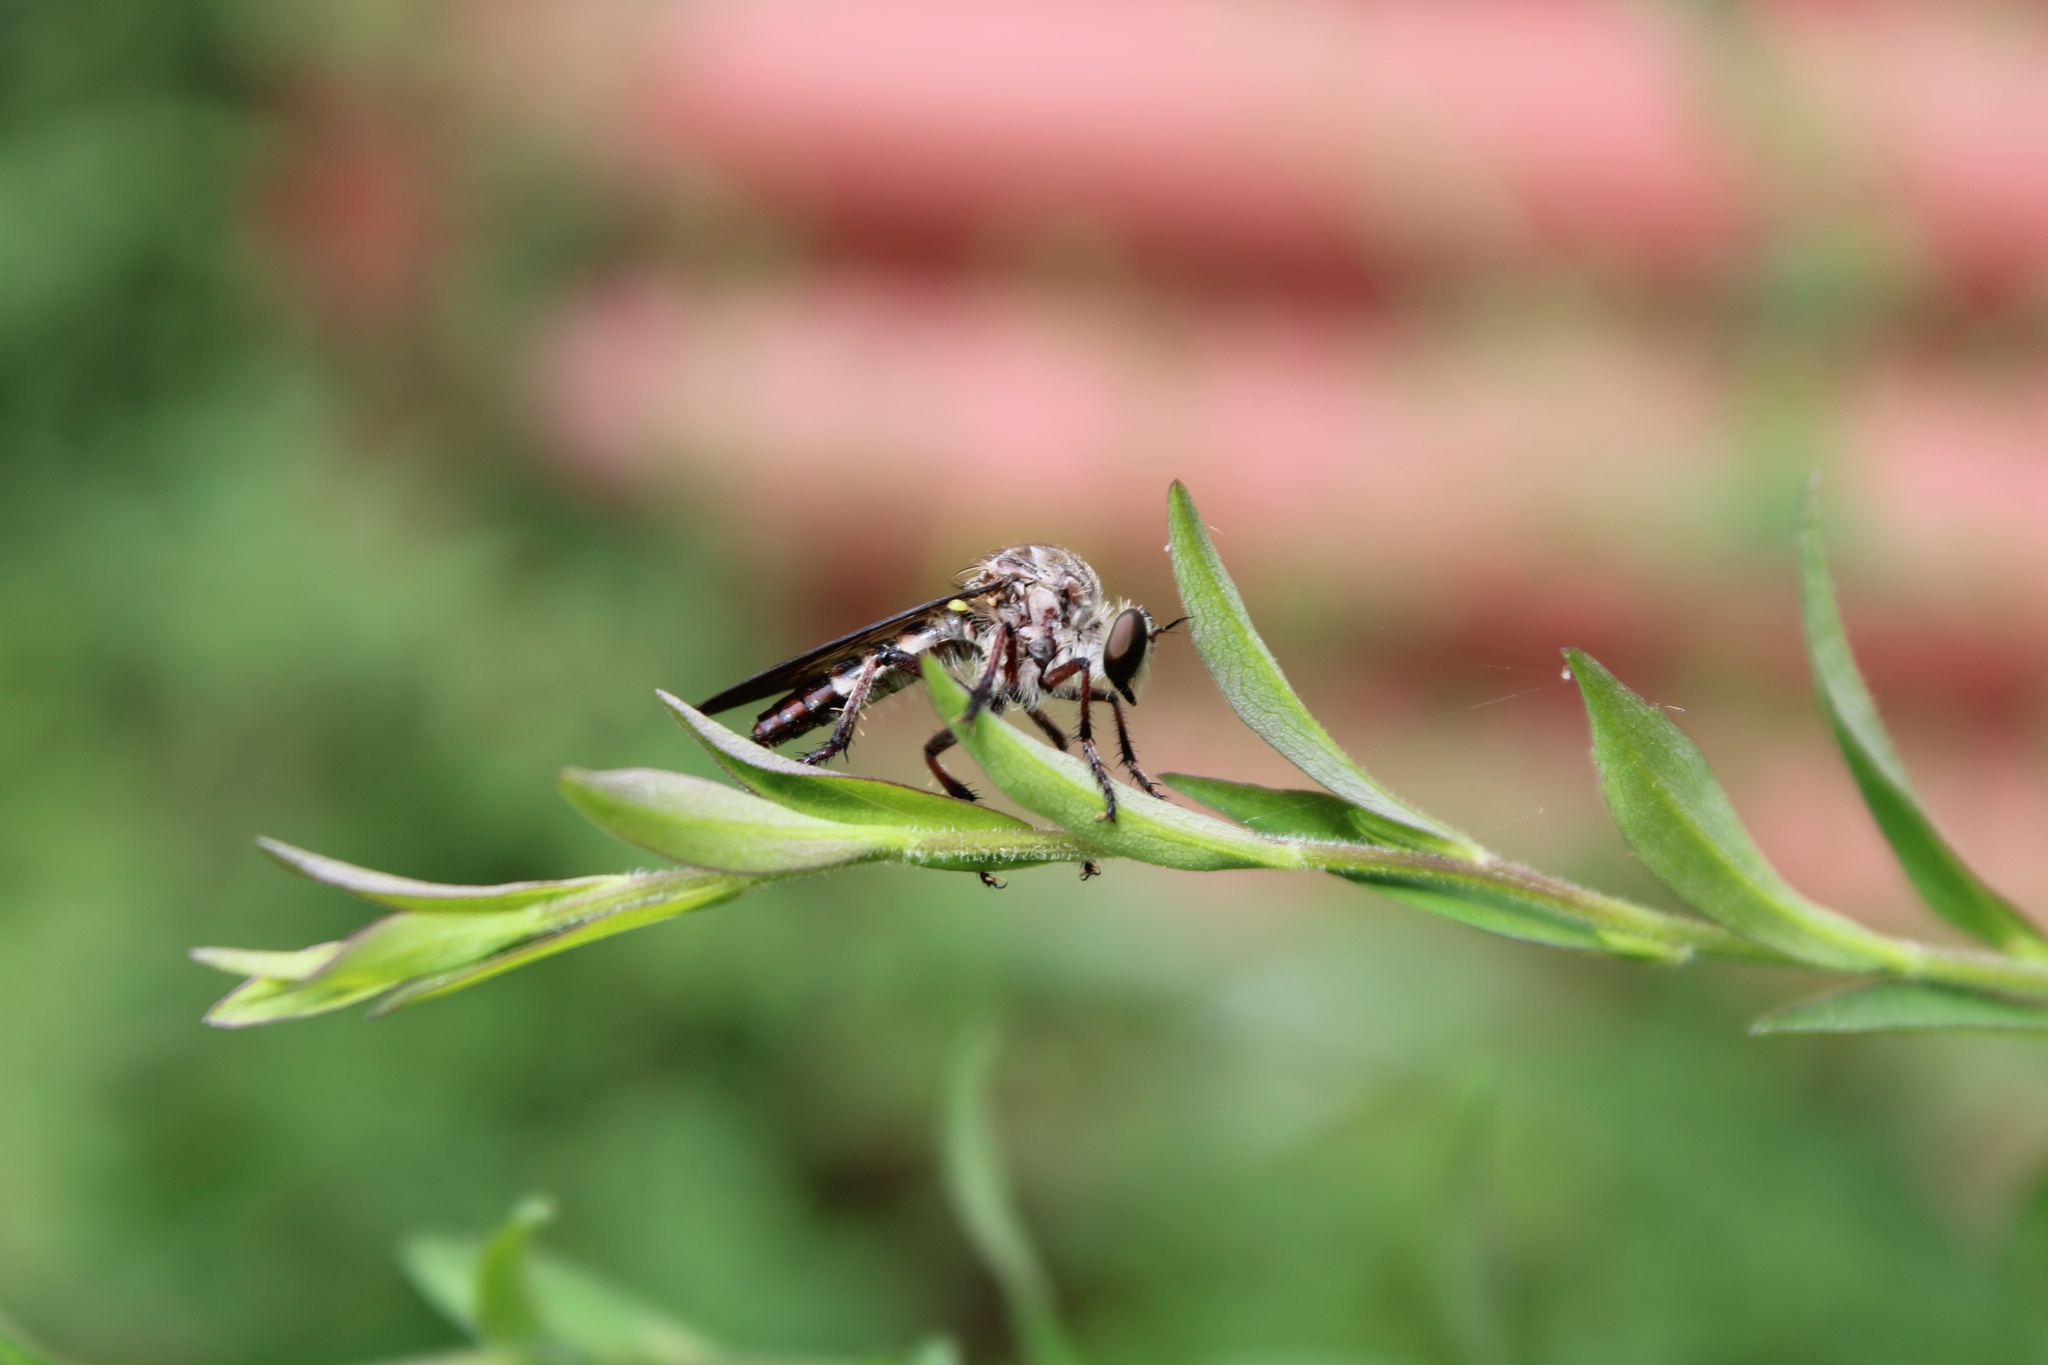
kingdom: Animalia
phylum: Arthropoda
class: Insecta
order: Diptera
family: Asilidae
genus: Heteropogon
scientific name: Heteropogon macerinus
